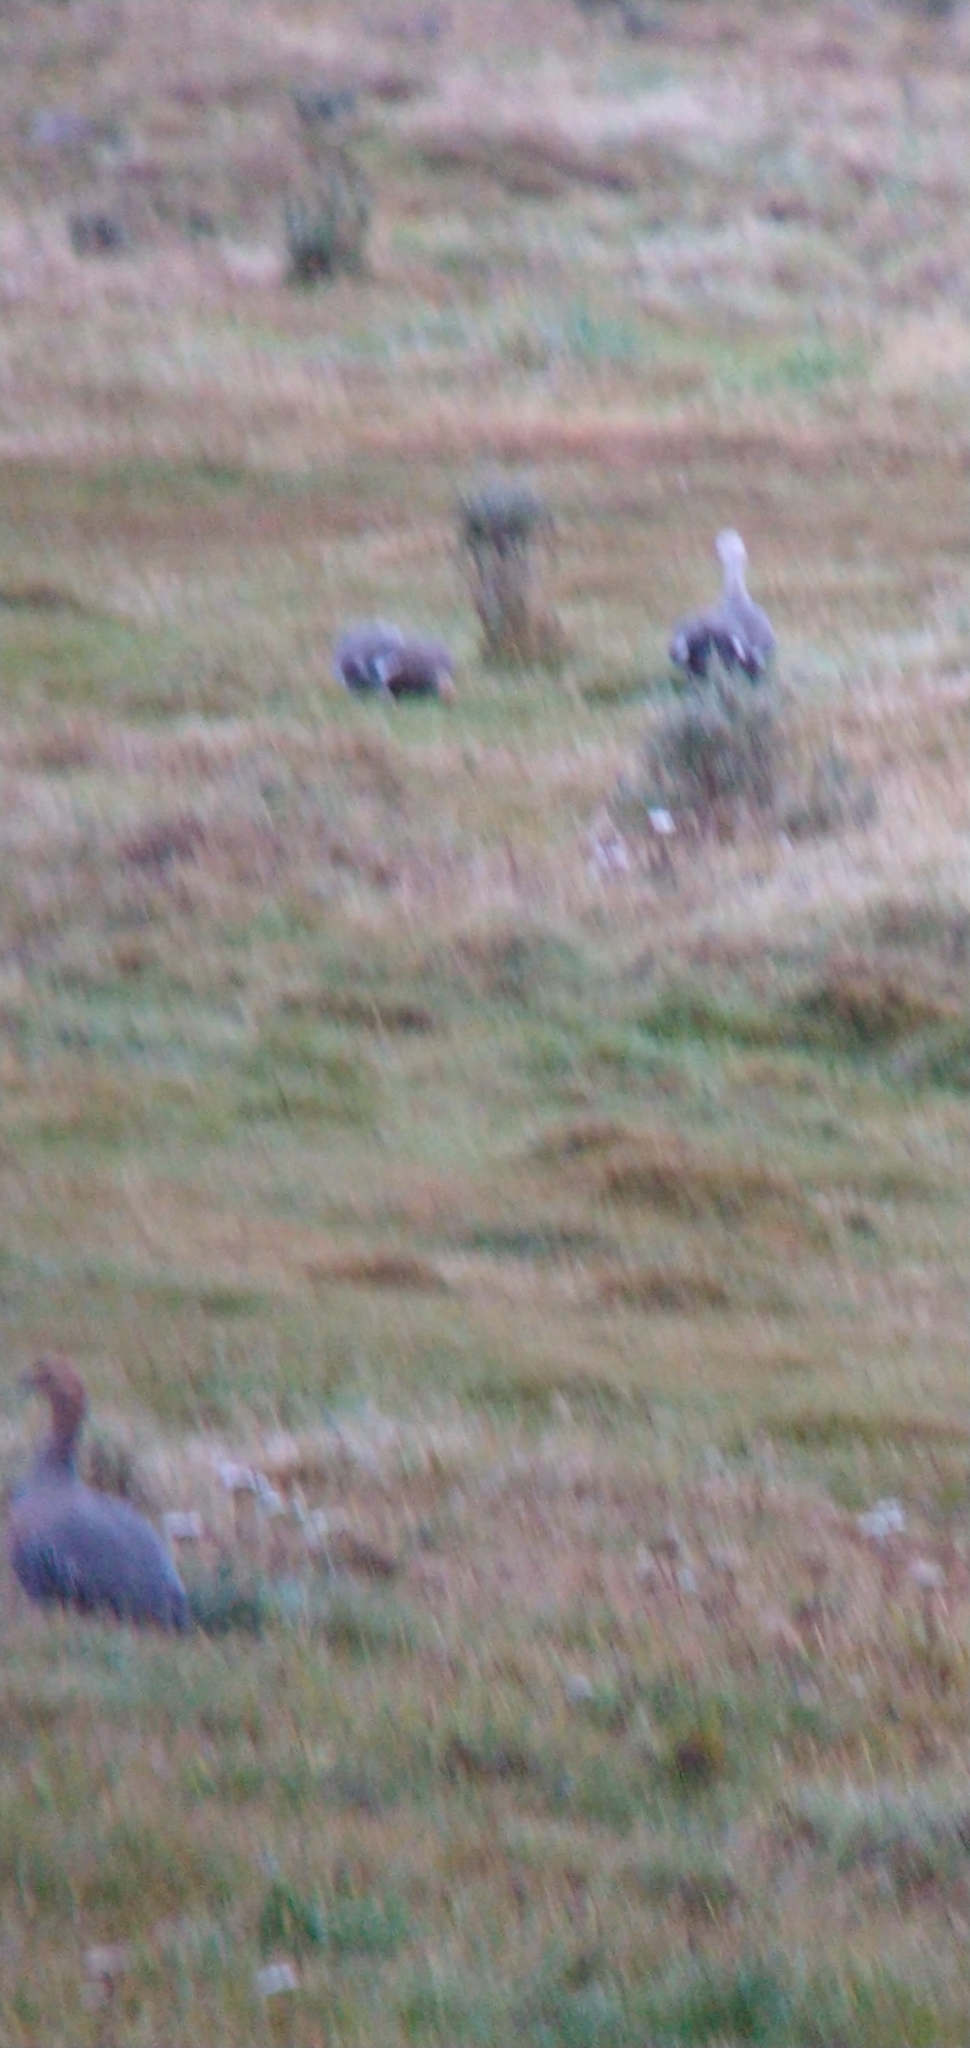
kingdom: Animalia
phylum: Chordata
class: Aves
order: Anseriformes
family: Anatidae
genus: Chloephaga
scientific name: Chloephaga picta
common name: Upland goose
